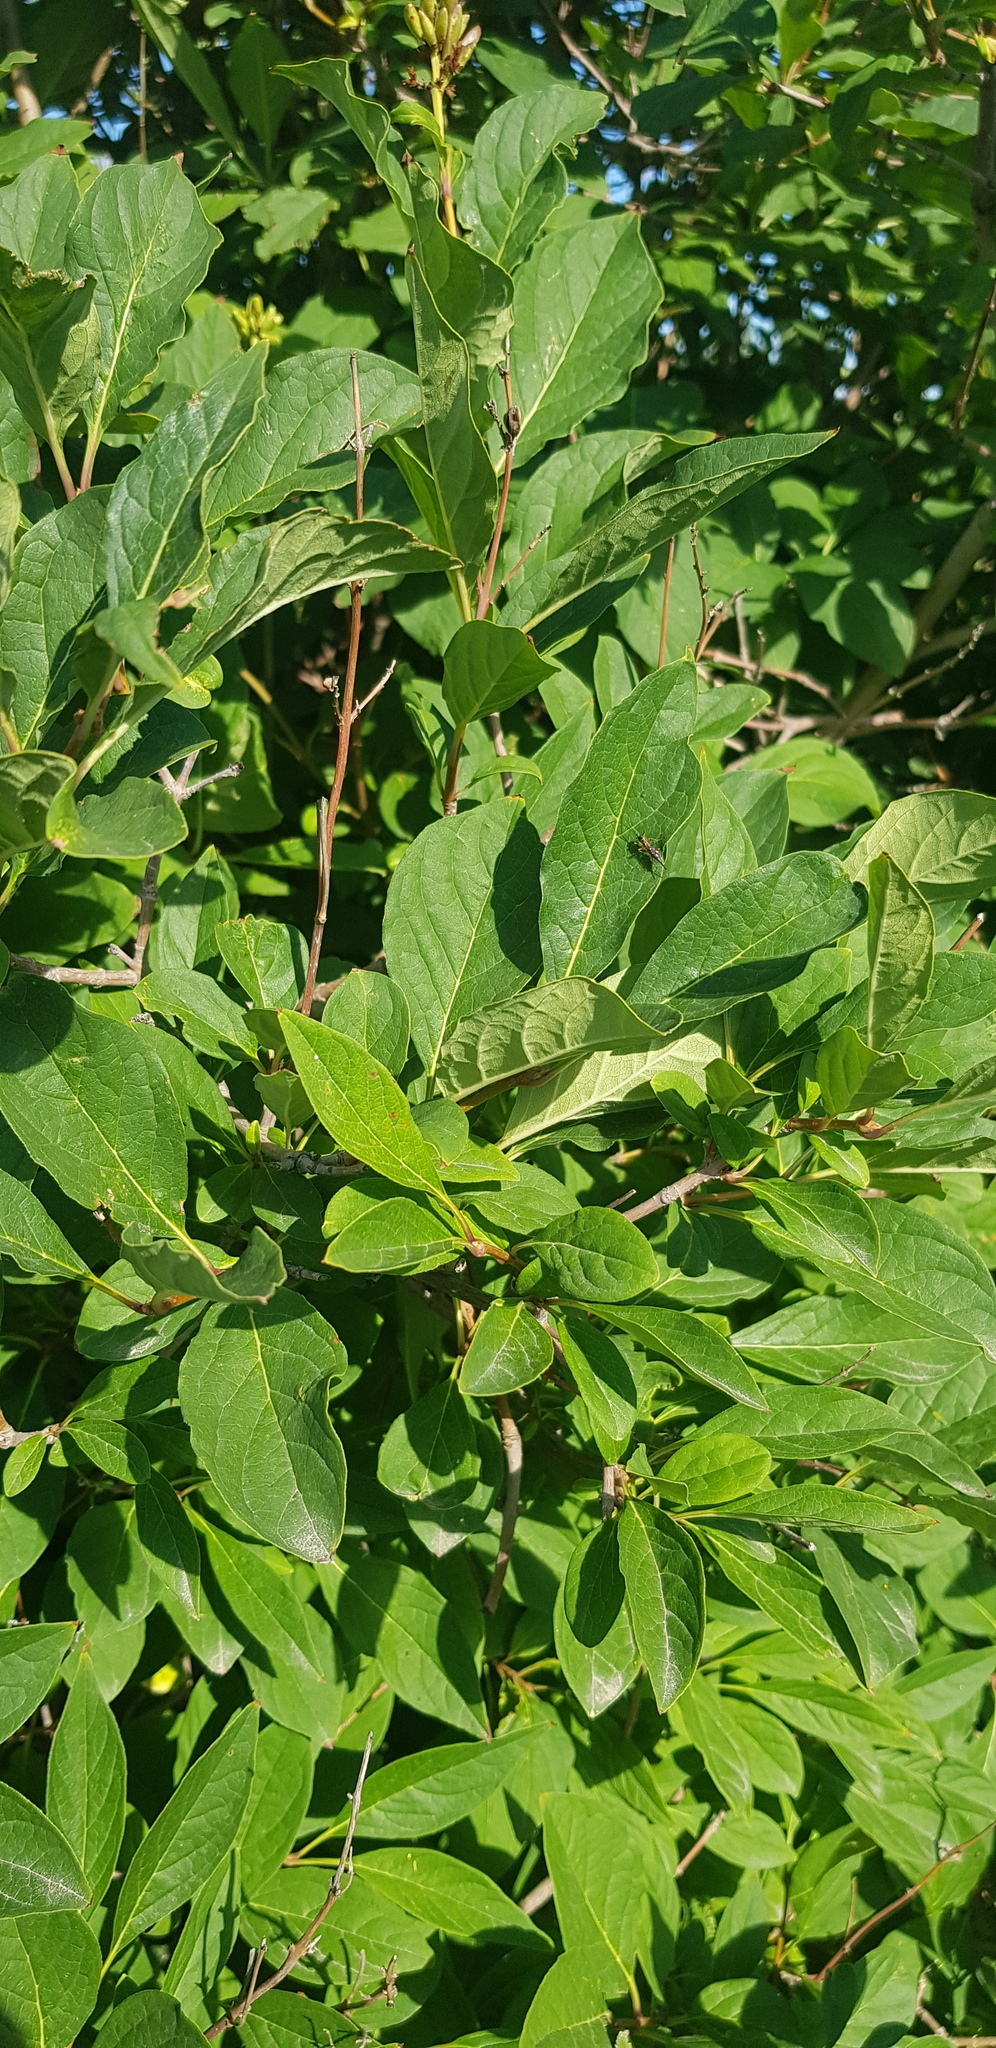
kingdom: Plantae
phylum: Tracheophyta
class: Magnoliopsida
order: Rosales
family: Rosaceae
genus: Prunus
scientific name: Prunus padus
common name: Bird cherry
